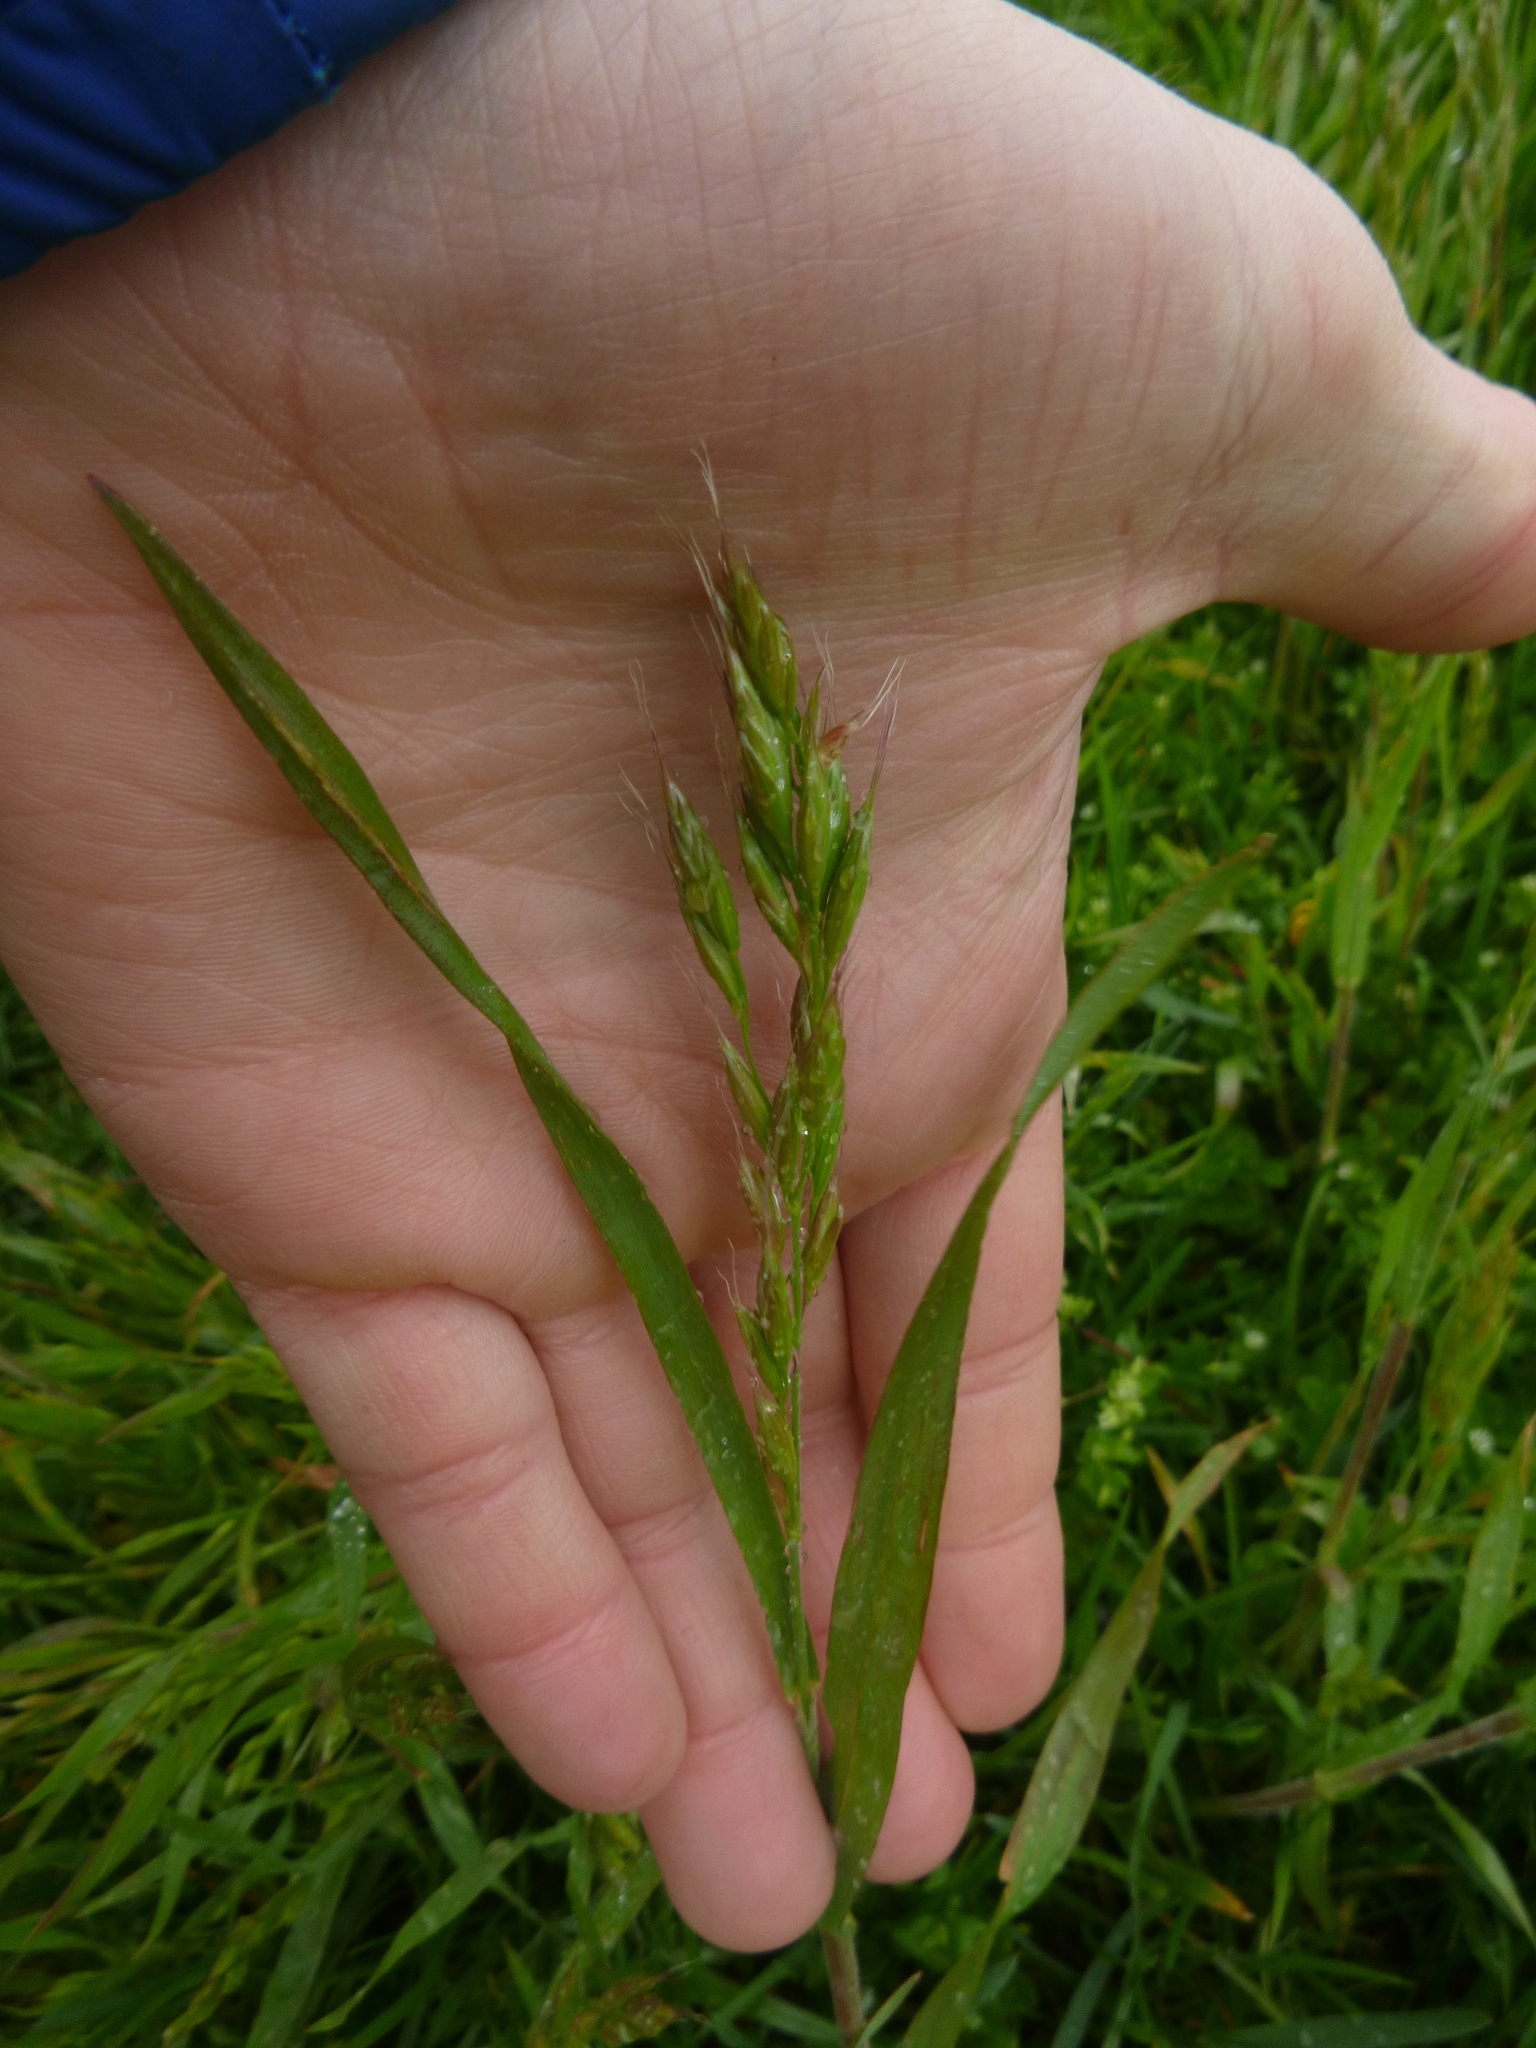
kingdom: Plantae
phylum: Tracheophyta
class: Liliopsida
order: Poales
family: Poaceae
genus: Bromus
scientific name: Bromus hordeaceus
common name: Soft brome
